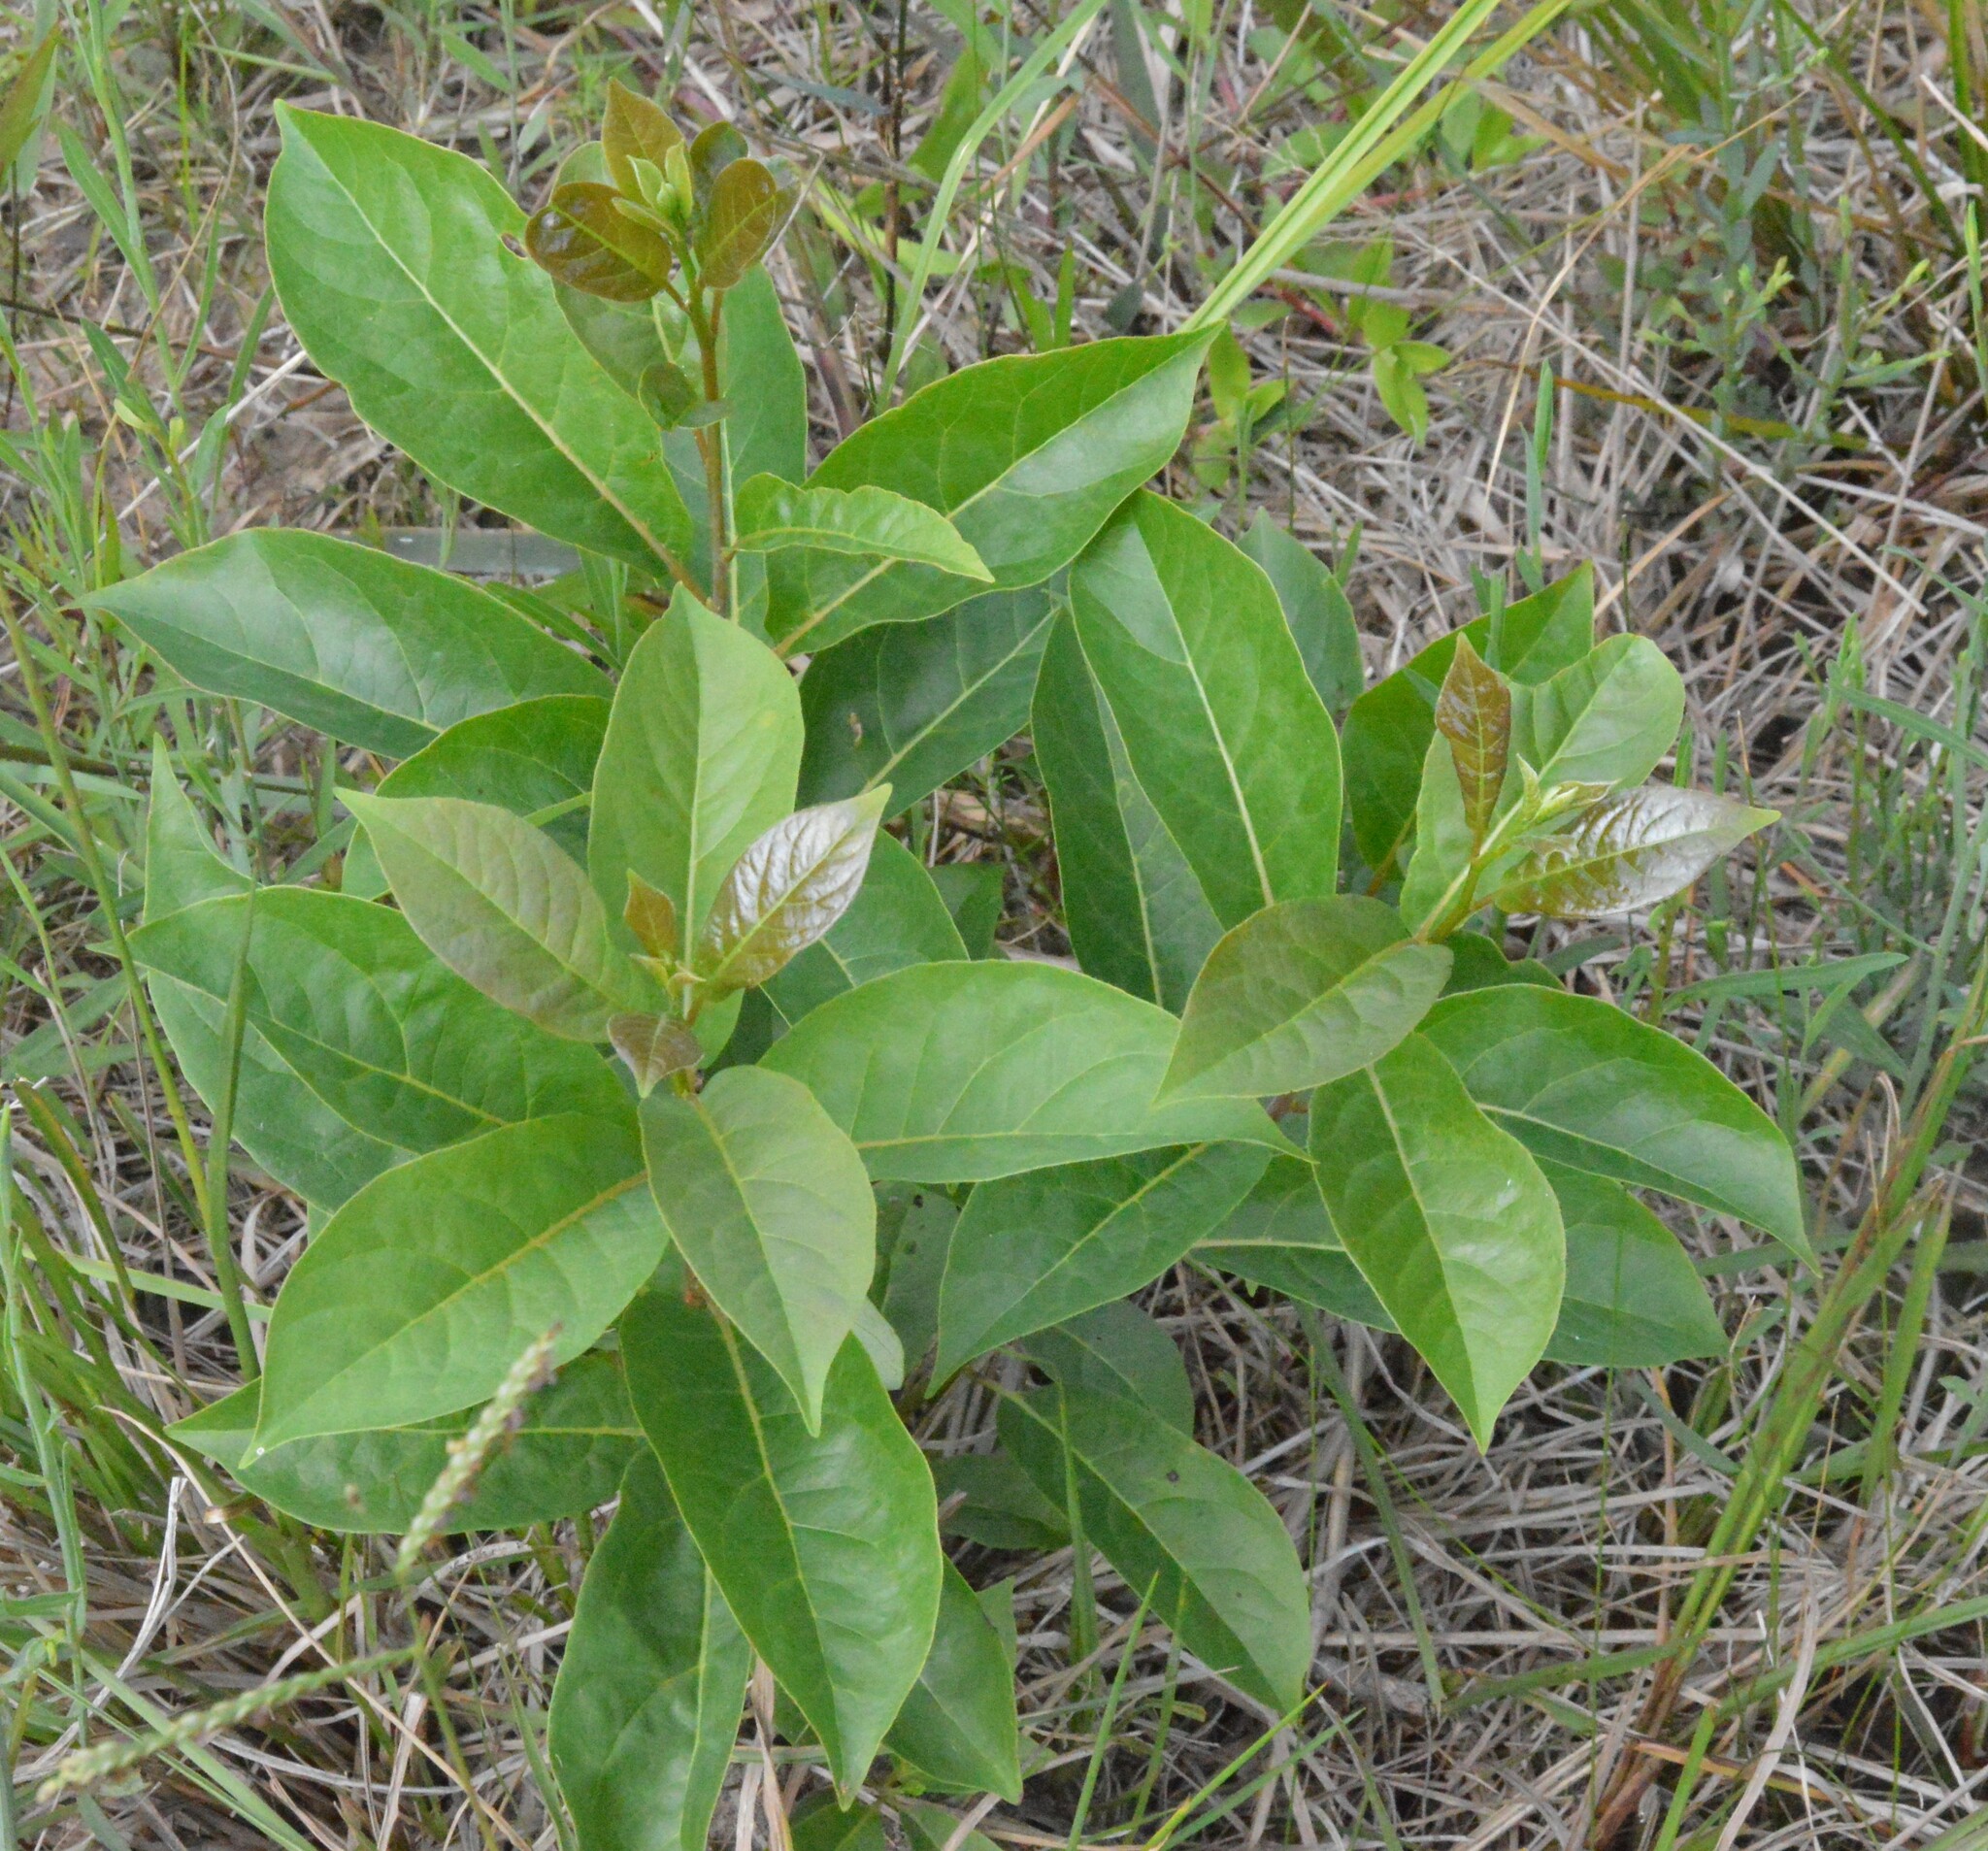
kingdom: Plantae
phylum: Tracheophyta
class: Magnoliopsida
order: Ericales
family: Ebenaceae
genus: Diospyros
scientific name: Diospyros virginiana
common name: Persimmon
